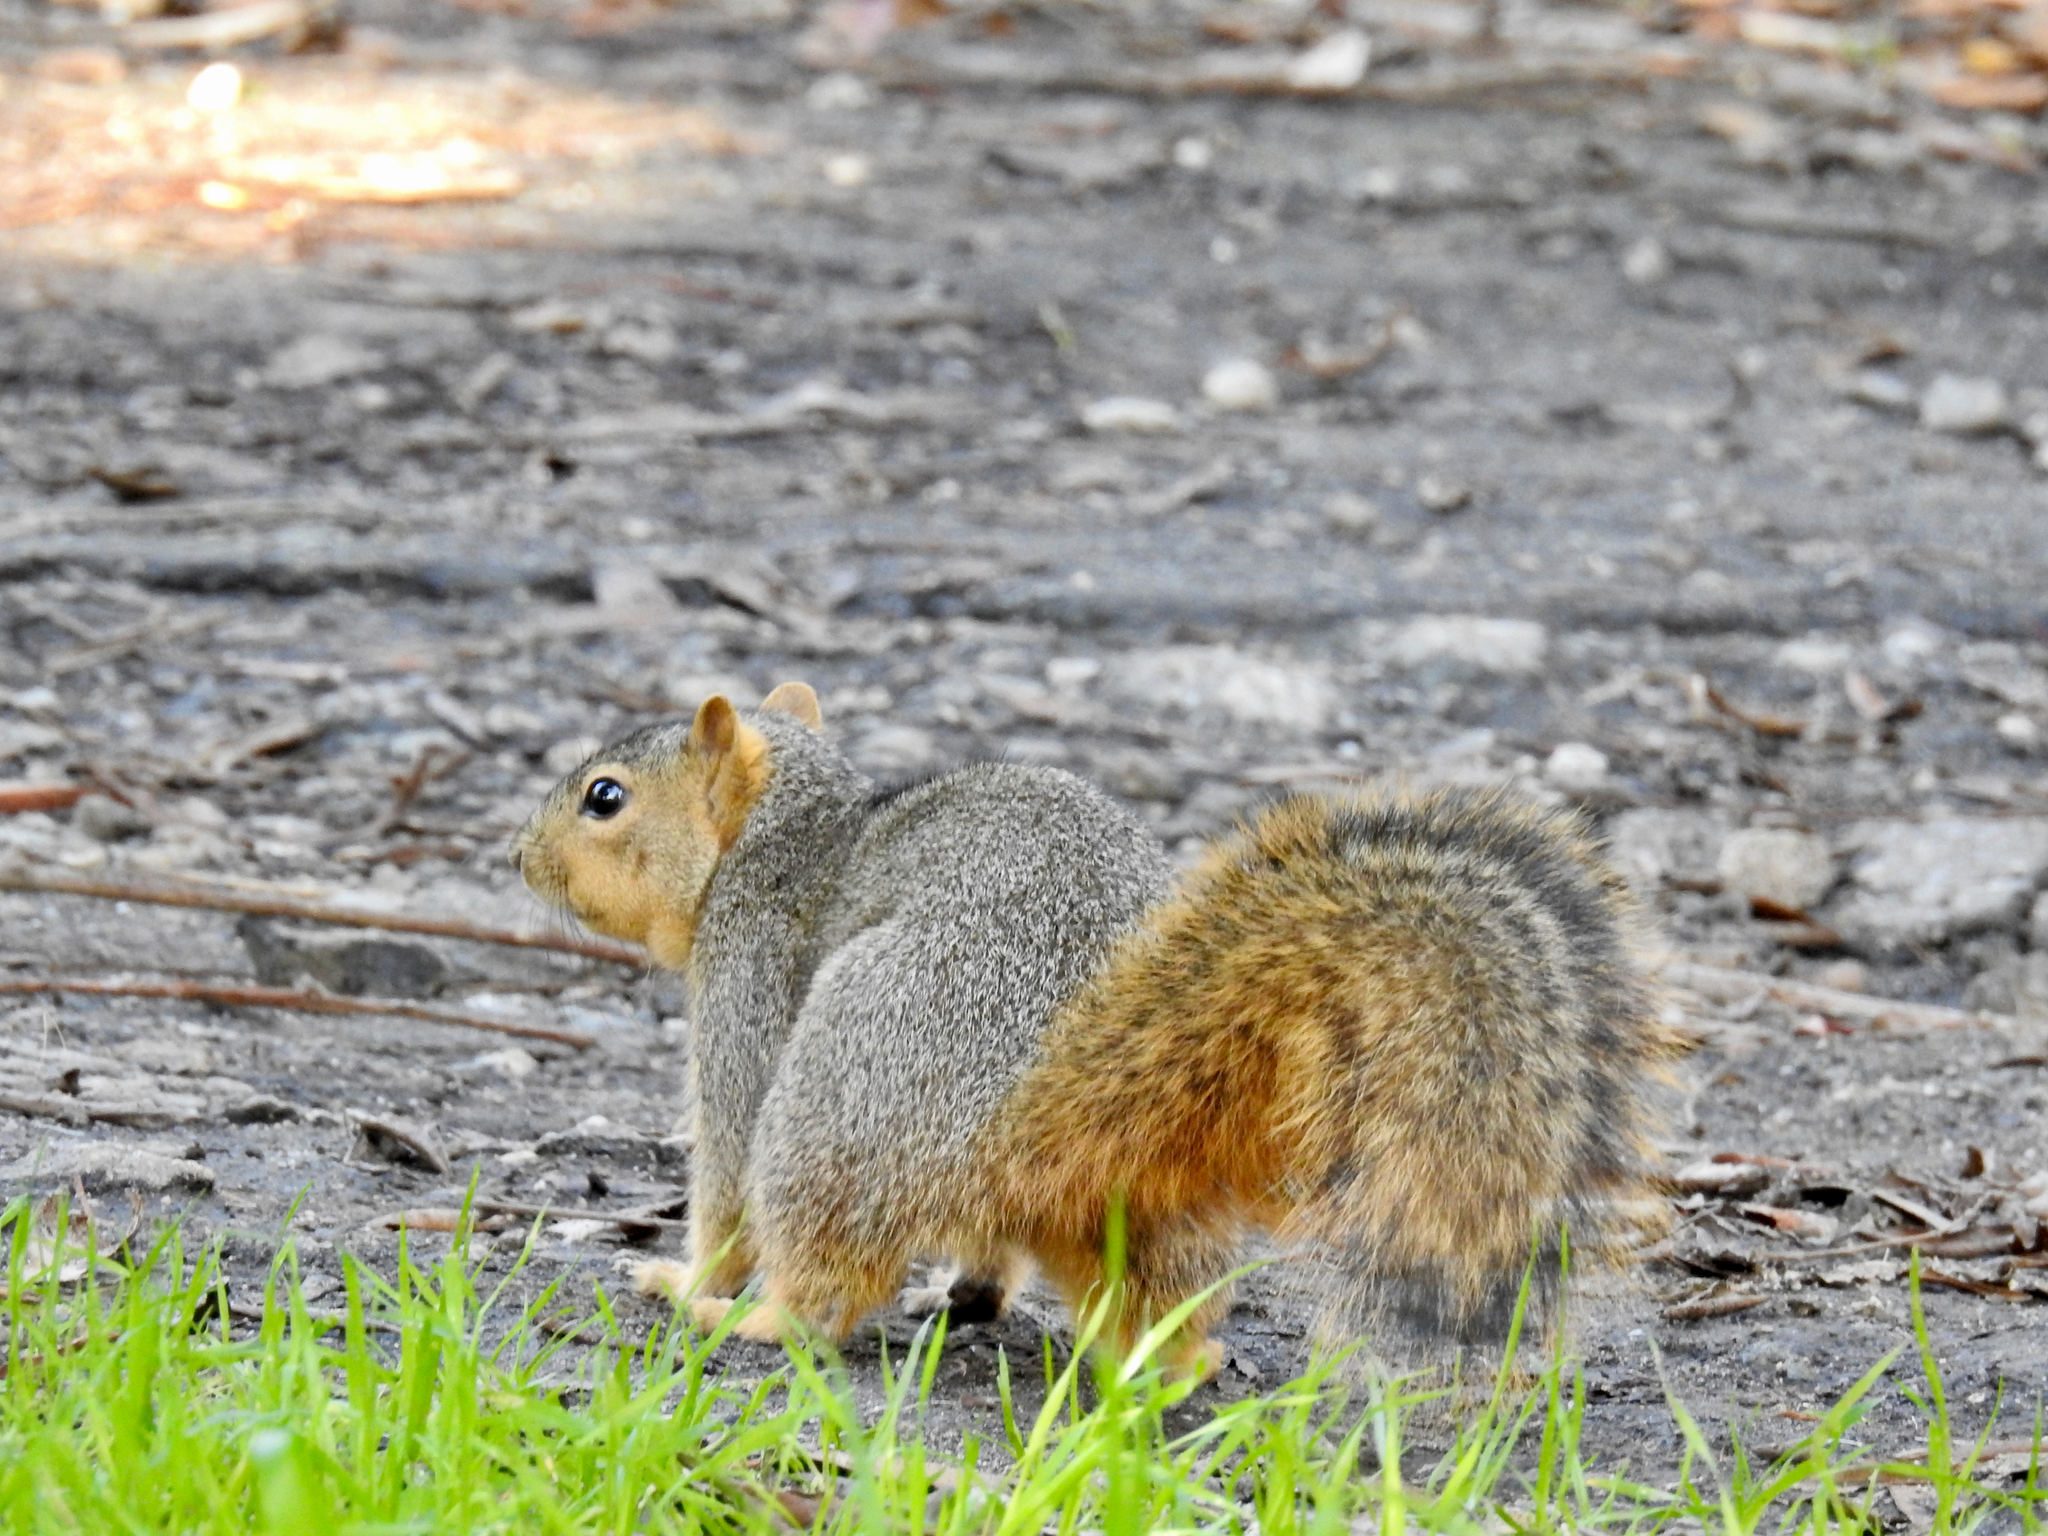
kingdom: Animalia
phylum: Chordata
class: Mammalia
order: Rodentia
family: Sciuridae
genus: Sciurus
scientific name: Sciurus niger
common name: Fox squirrel
